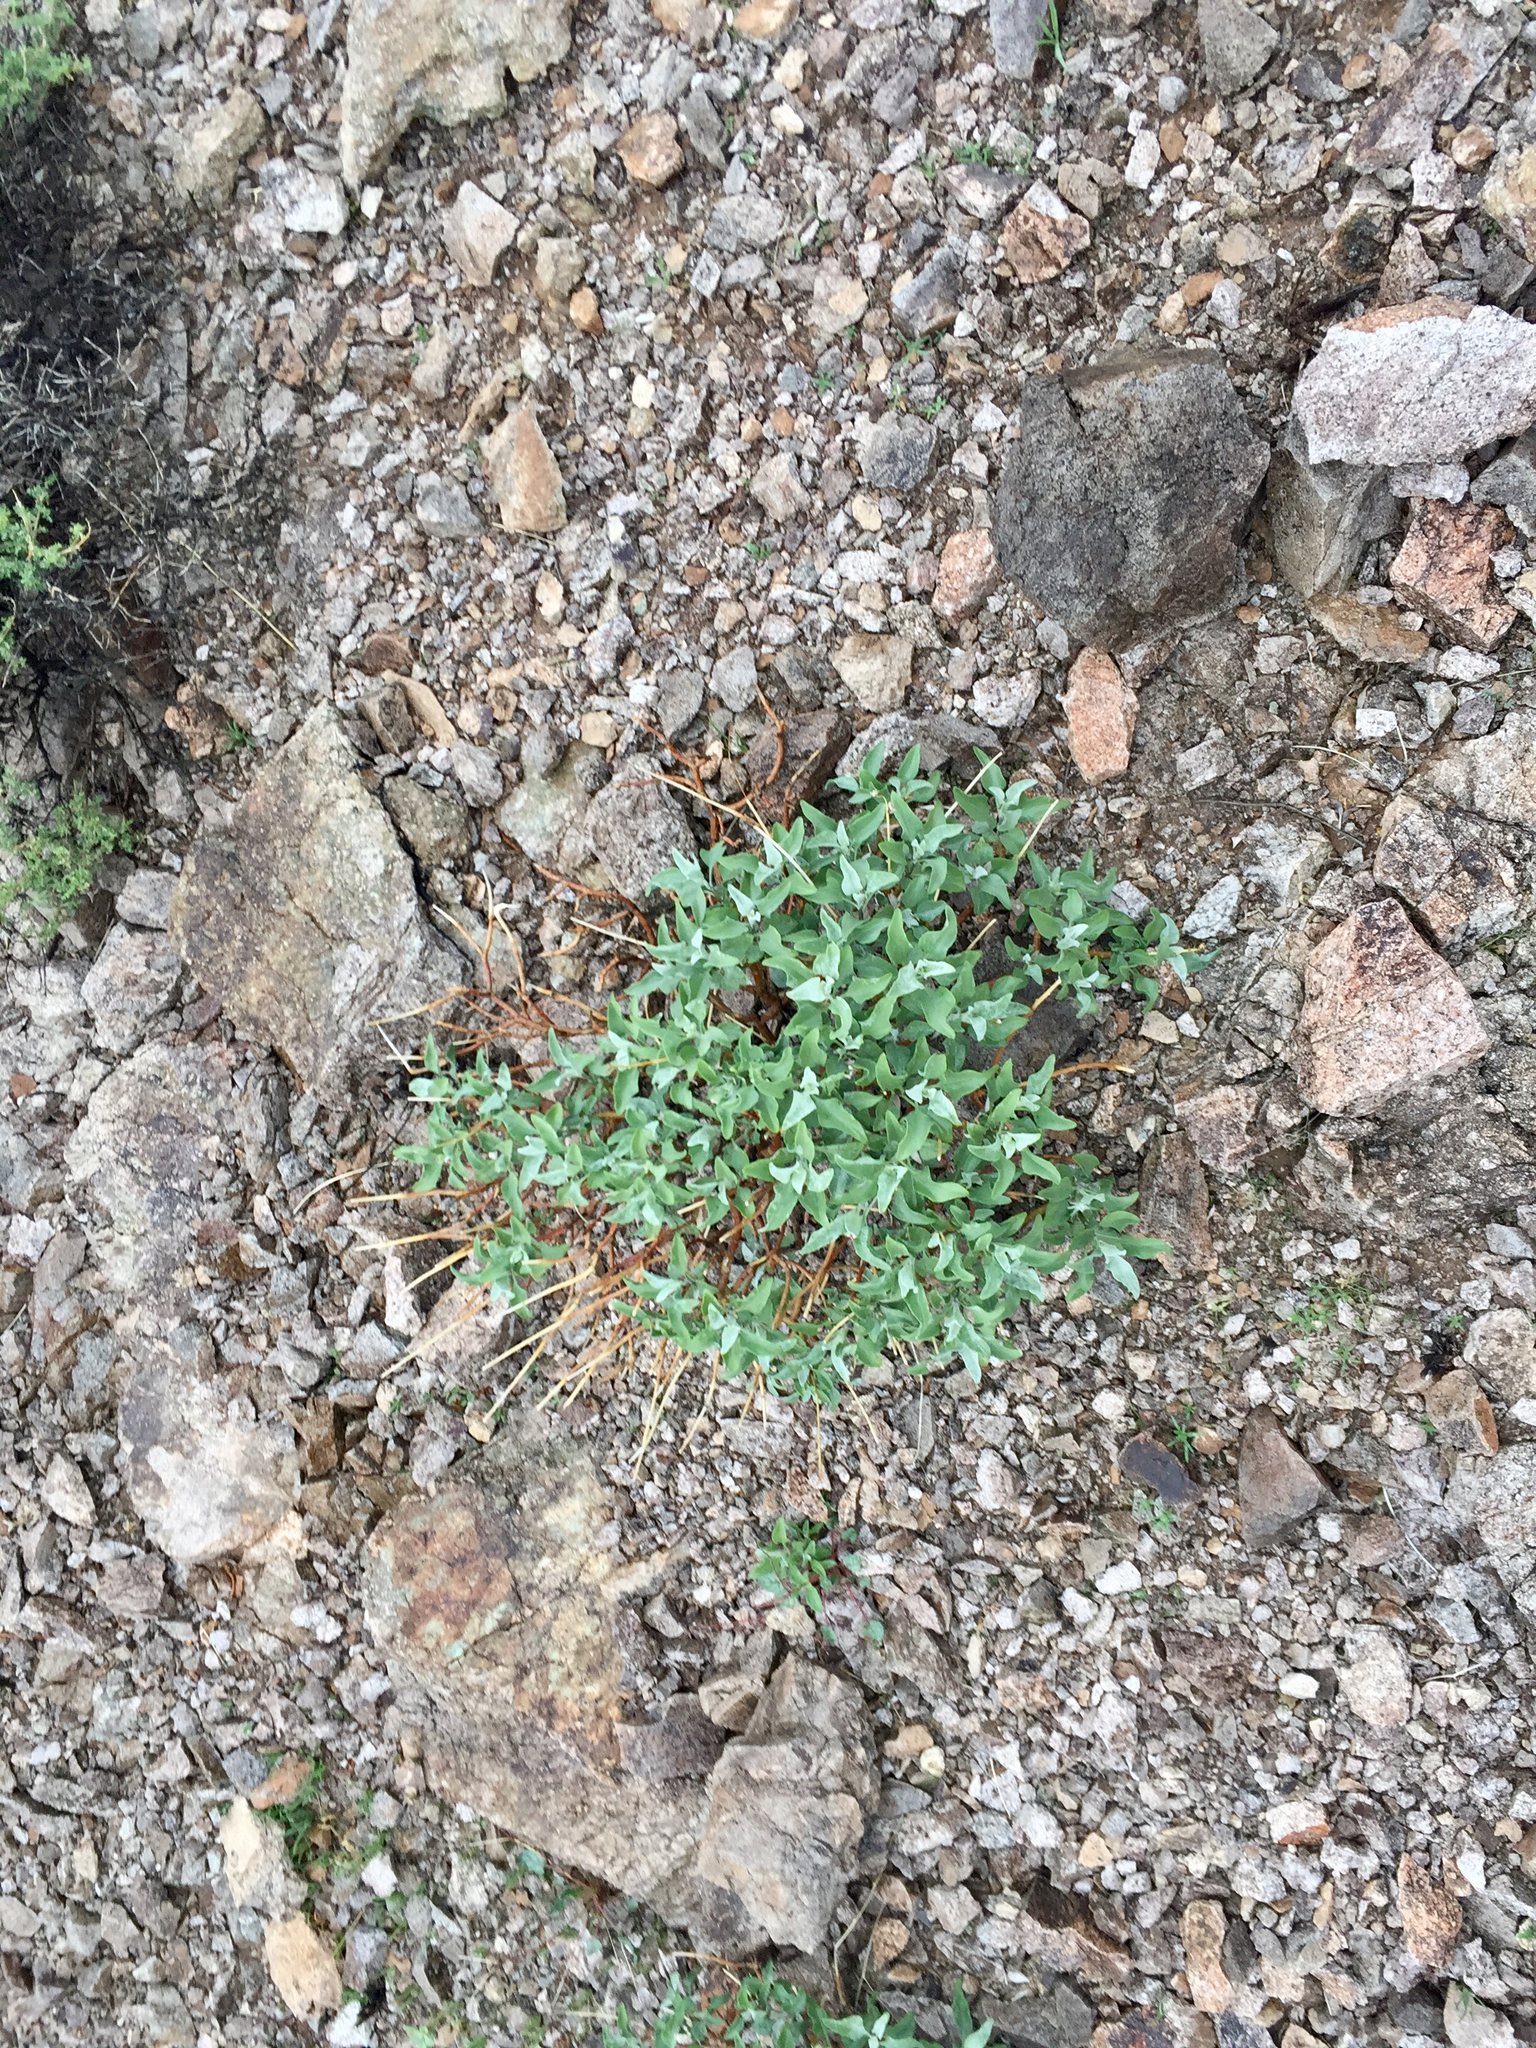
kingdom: Plantae
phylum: Tracheophyta
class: Magnoliopsida
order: Asterales
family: Asteraceae
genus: Encelia
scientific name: Encelia farinosa
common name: Brittlebush
